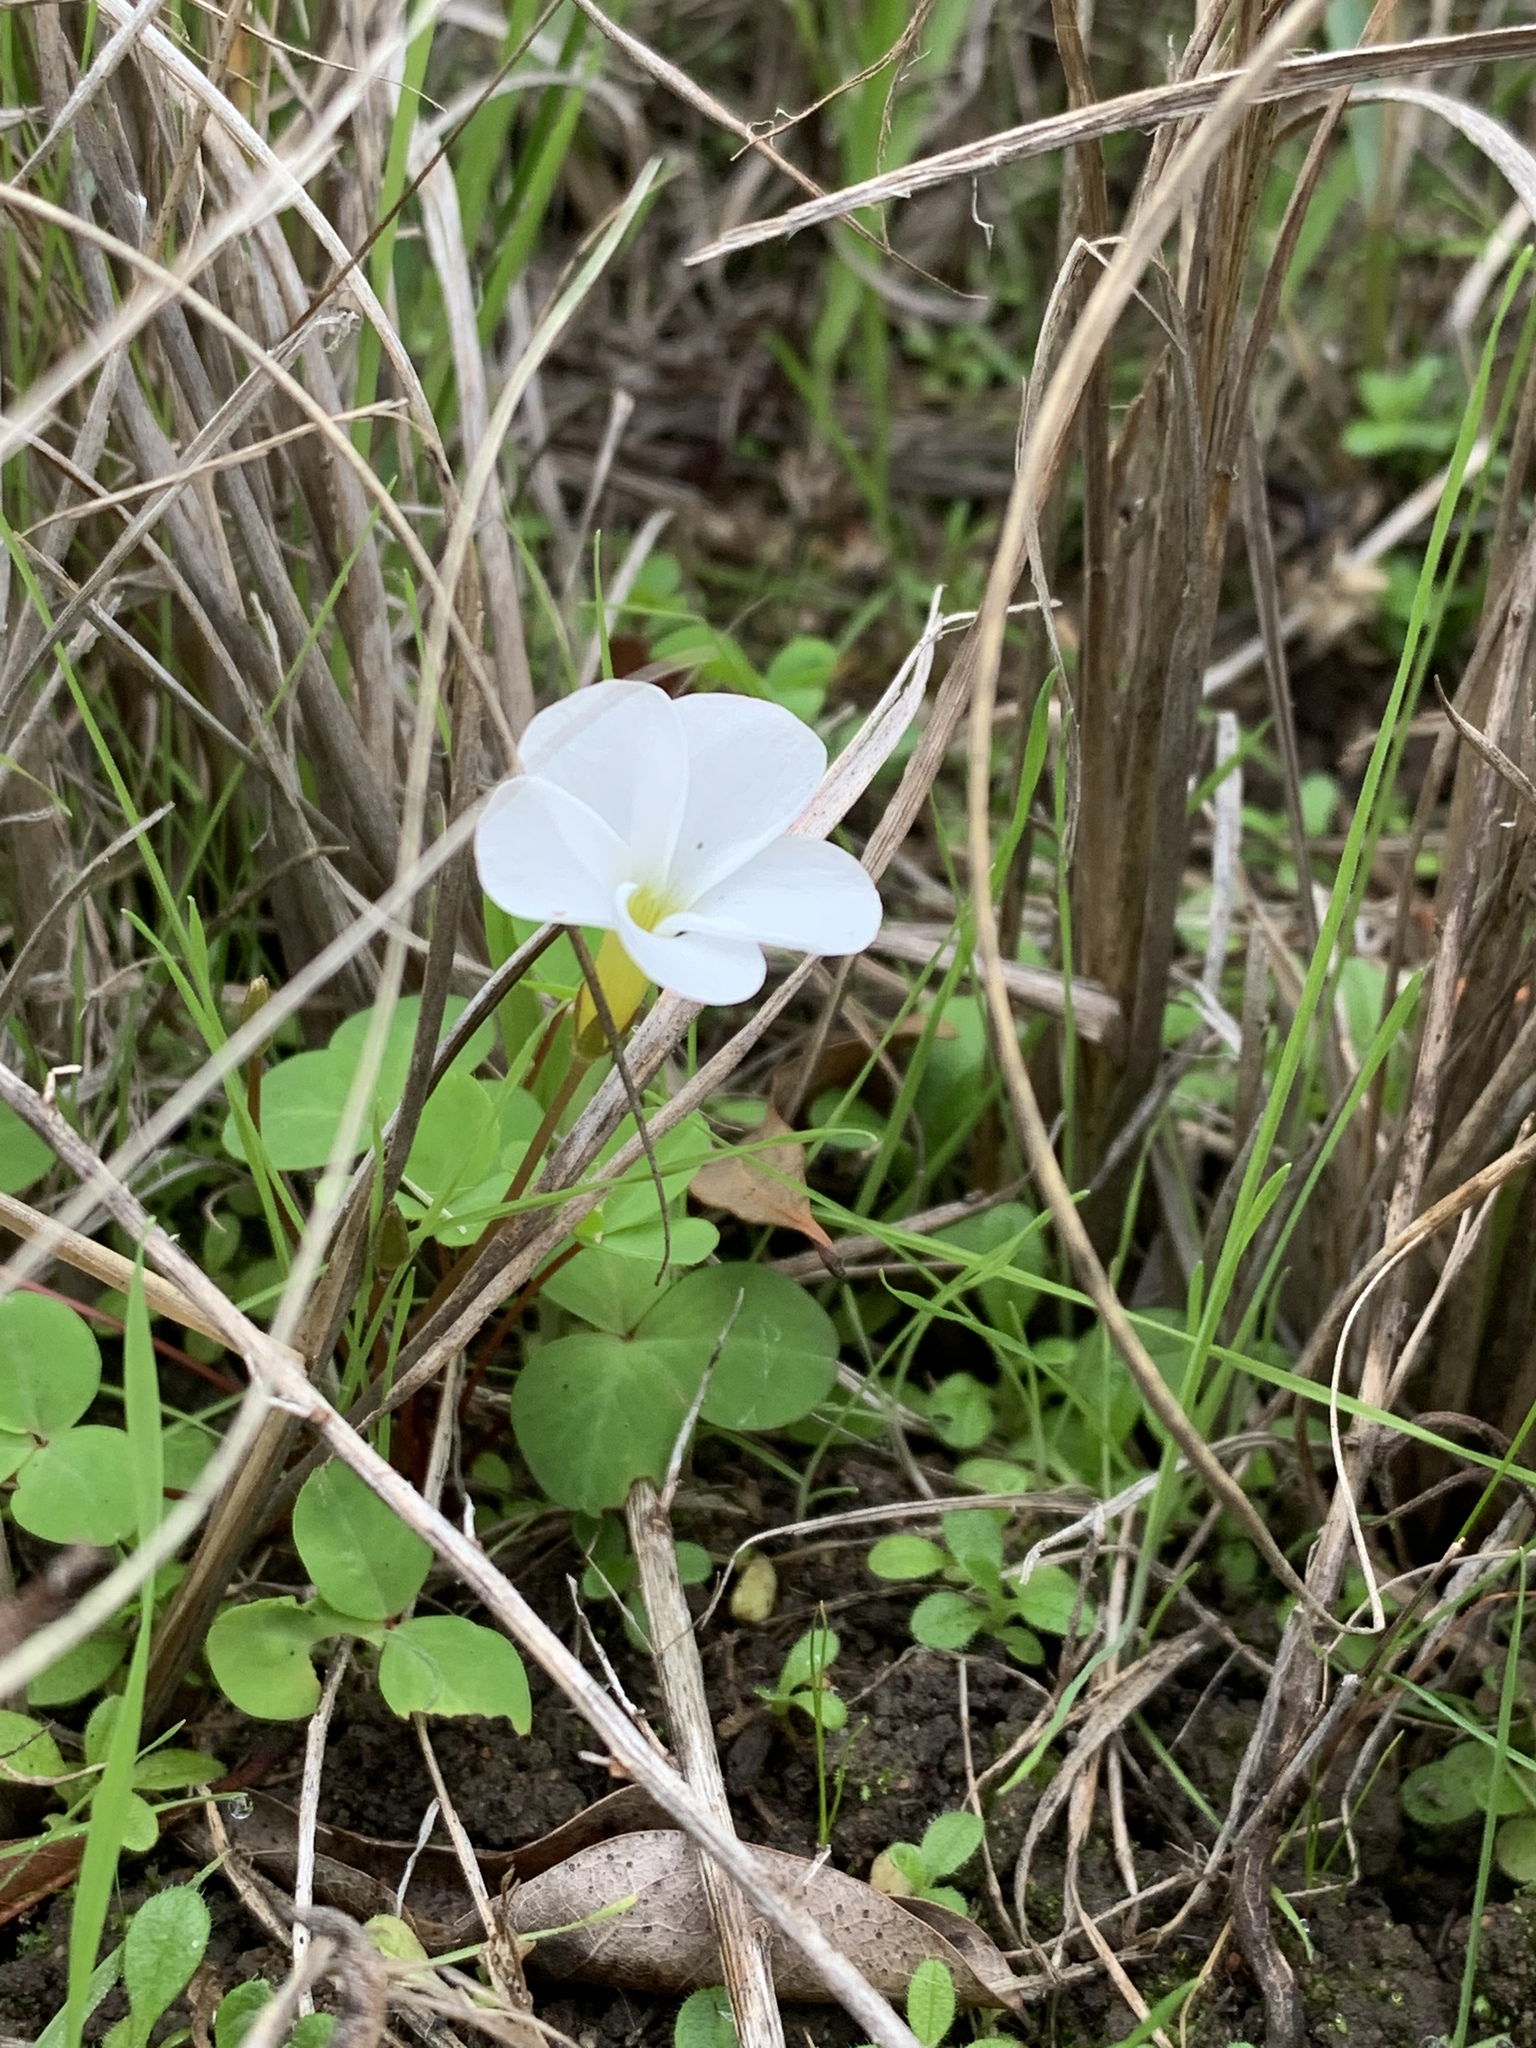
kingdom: Plantae
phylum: Tracheophyta
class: Magnoliopsida
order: Oxalidales
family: Oxalidaceae
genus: Oxalis
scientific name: Oxalis minuta
